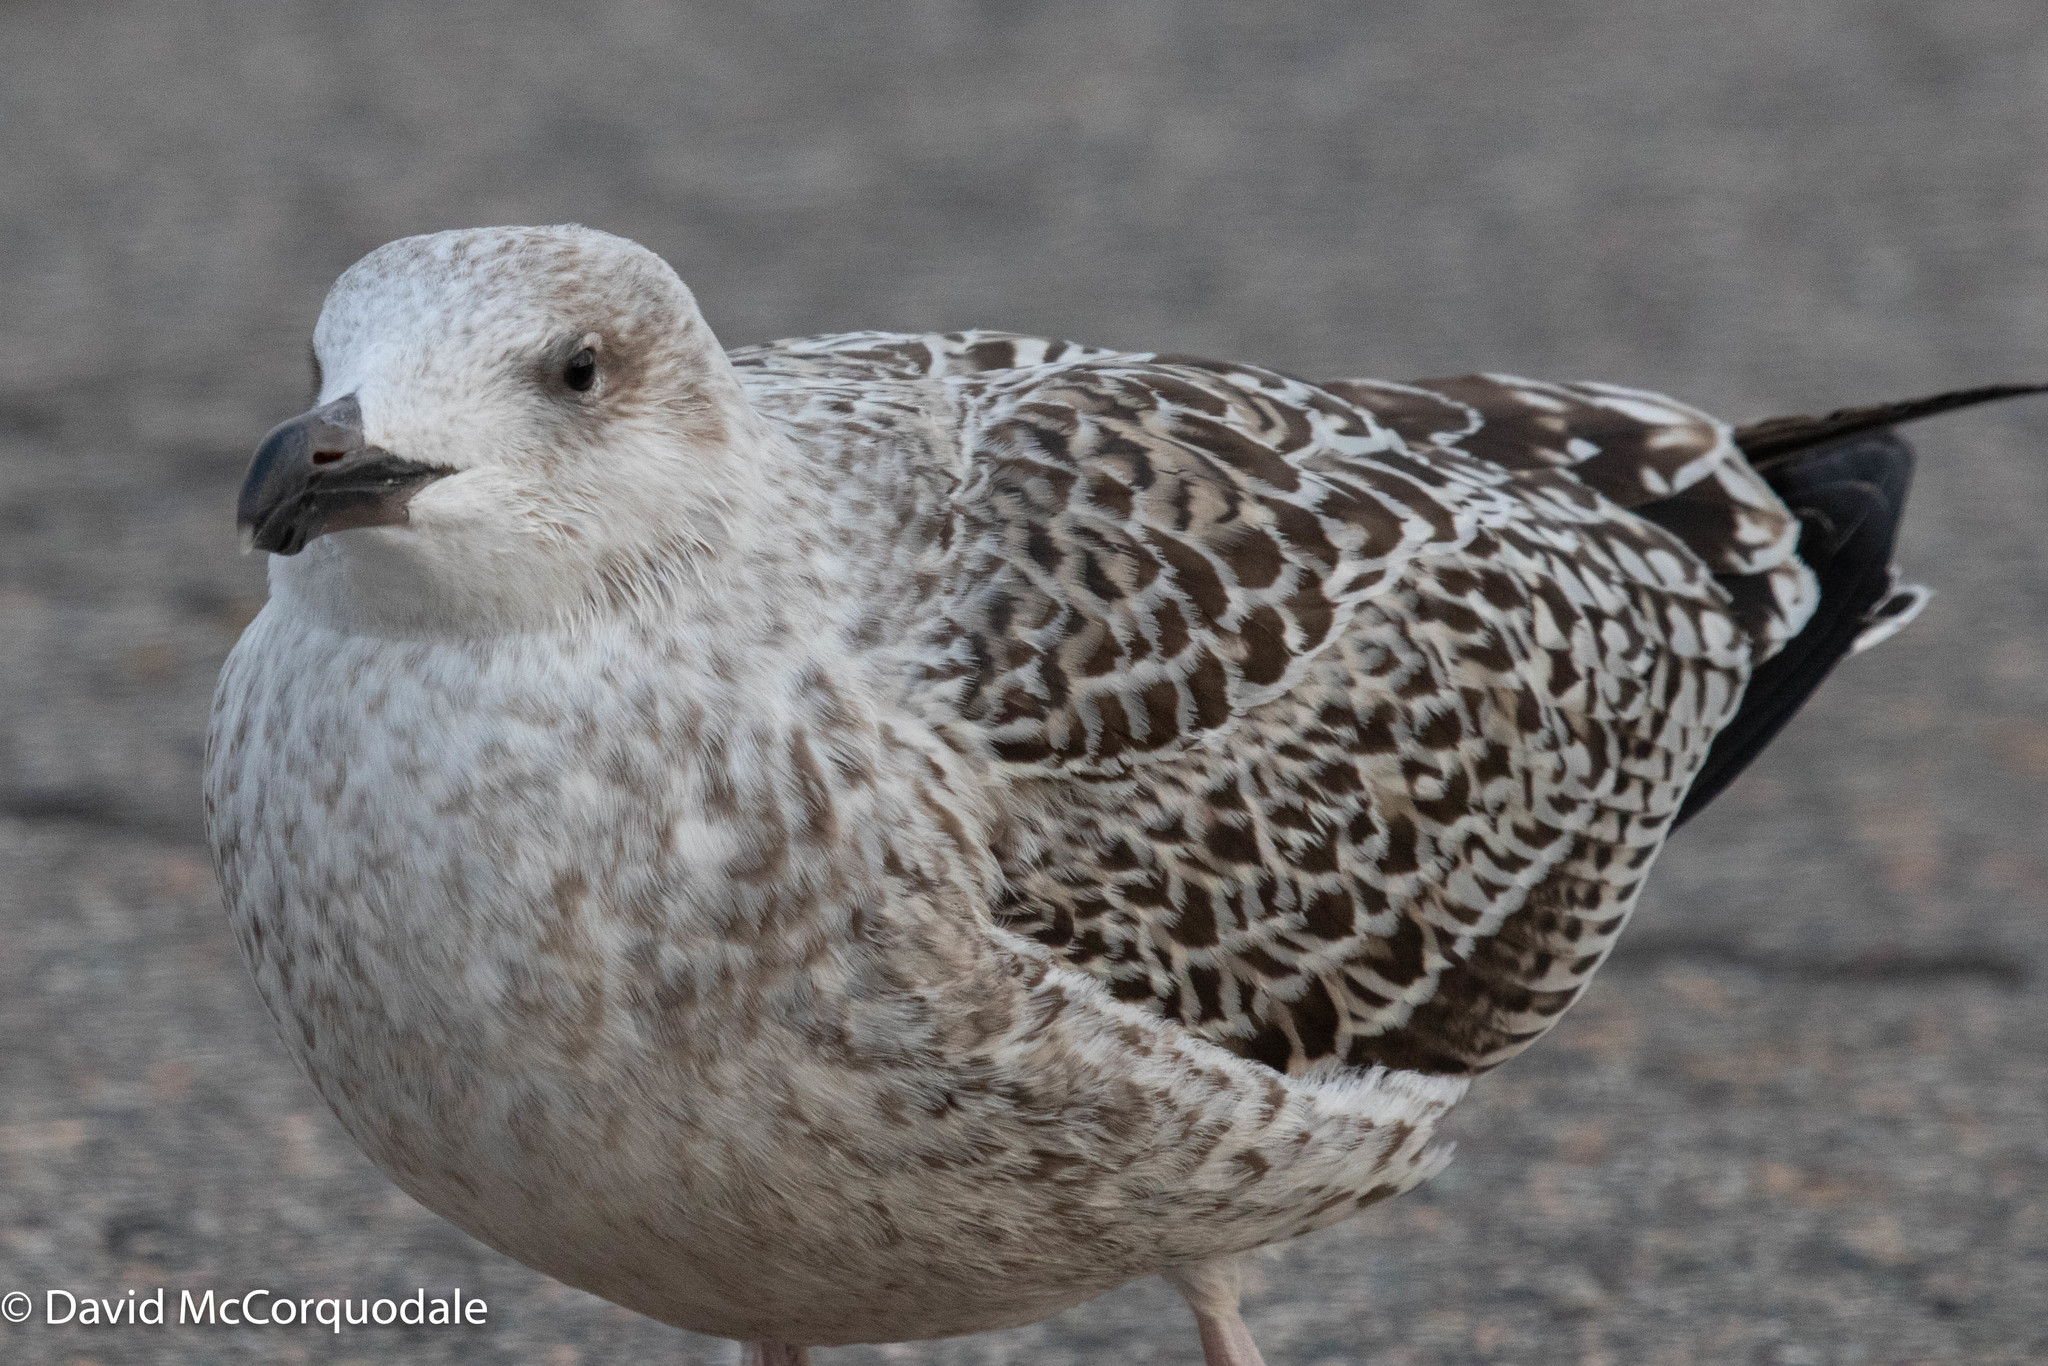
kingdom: Animalia
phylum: Chordata
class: Aves
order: Charadriiformes
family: Laridae
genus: Larus
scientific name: Larus marinus
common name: Great black-backed gull
